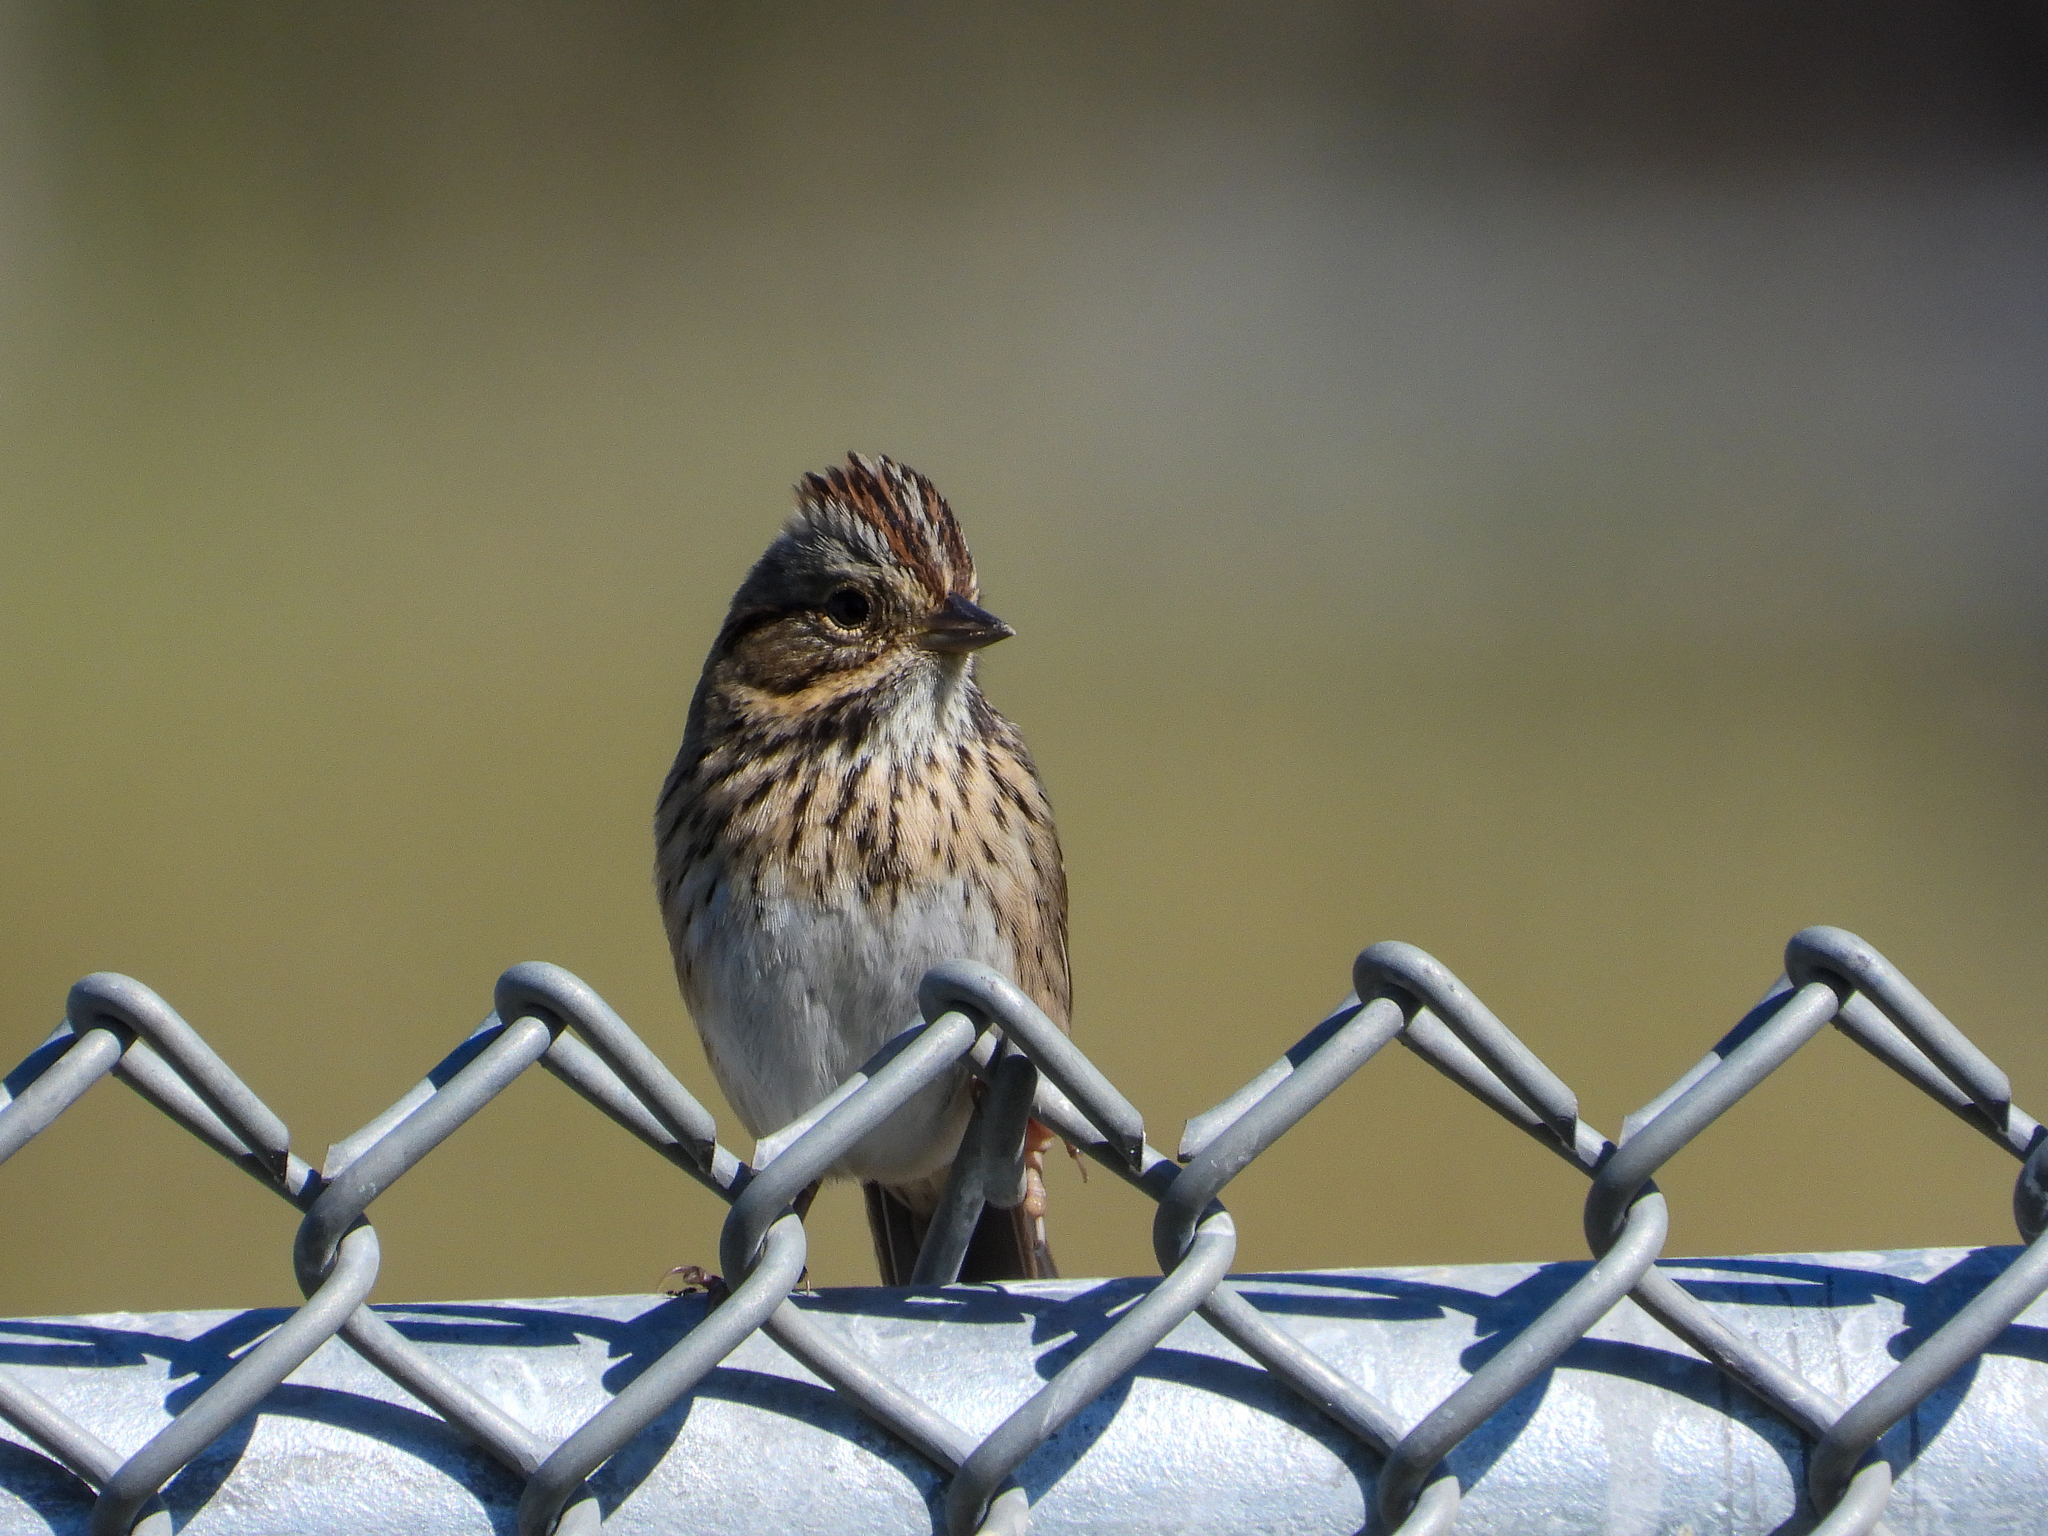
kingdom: Animalia
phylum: Chordata
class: Aves
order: Passeriformes
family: Passerellidae
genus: Melospiza
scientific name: Melospiza lincolnii
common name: Lincoln's sparrow
